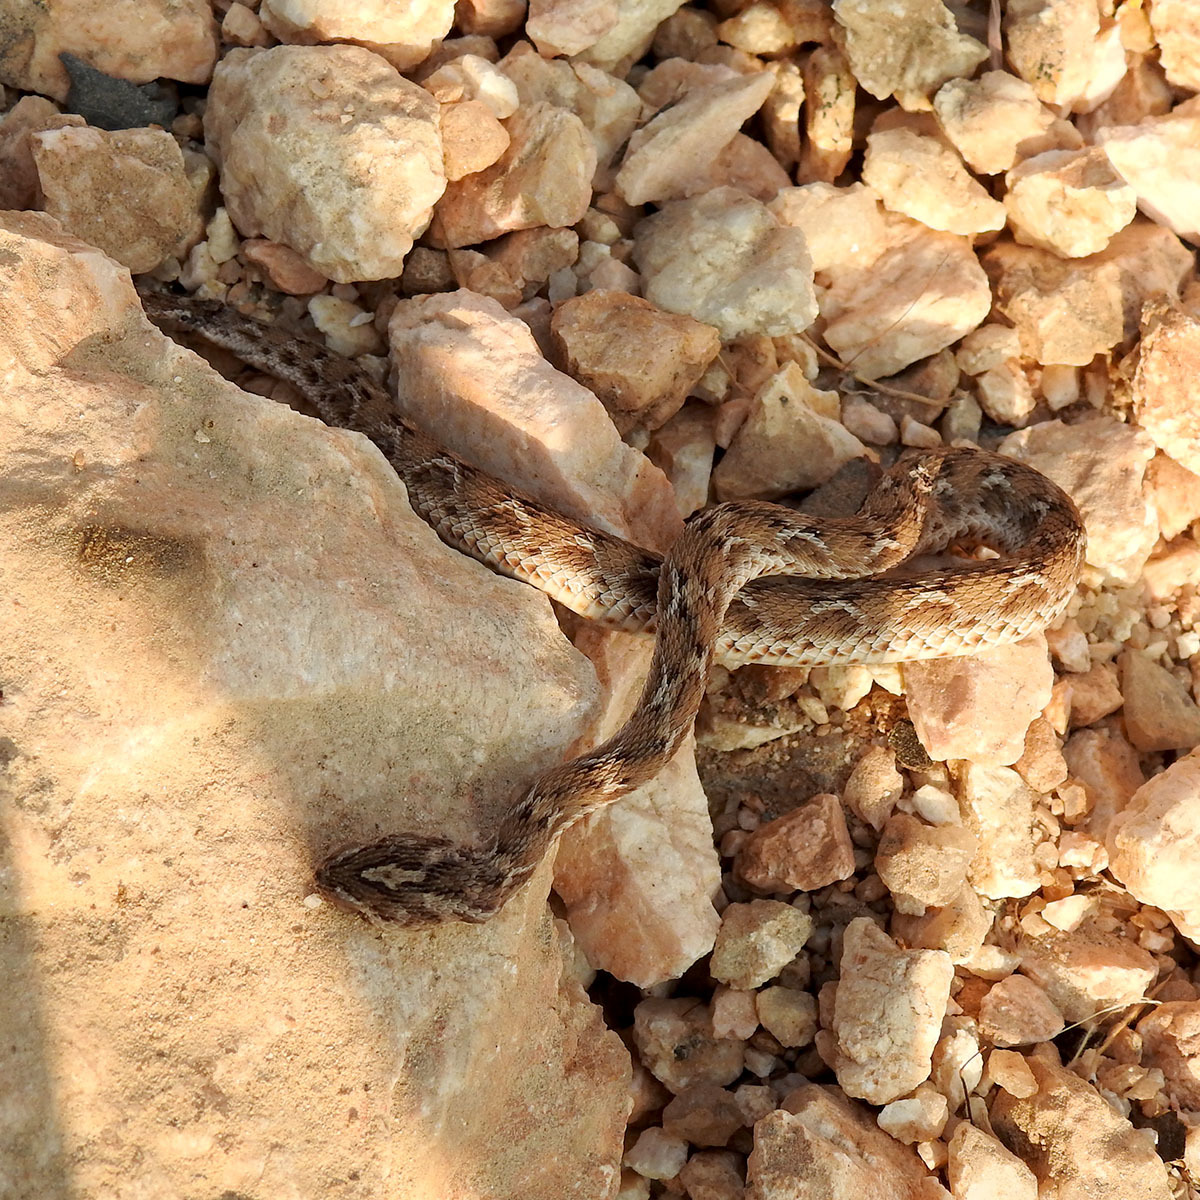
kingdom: Animalia
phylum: Chordata
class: Squamata
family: Viperidae
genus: Echis
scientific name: Echis carinatus
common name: Saw-scaled viper
